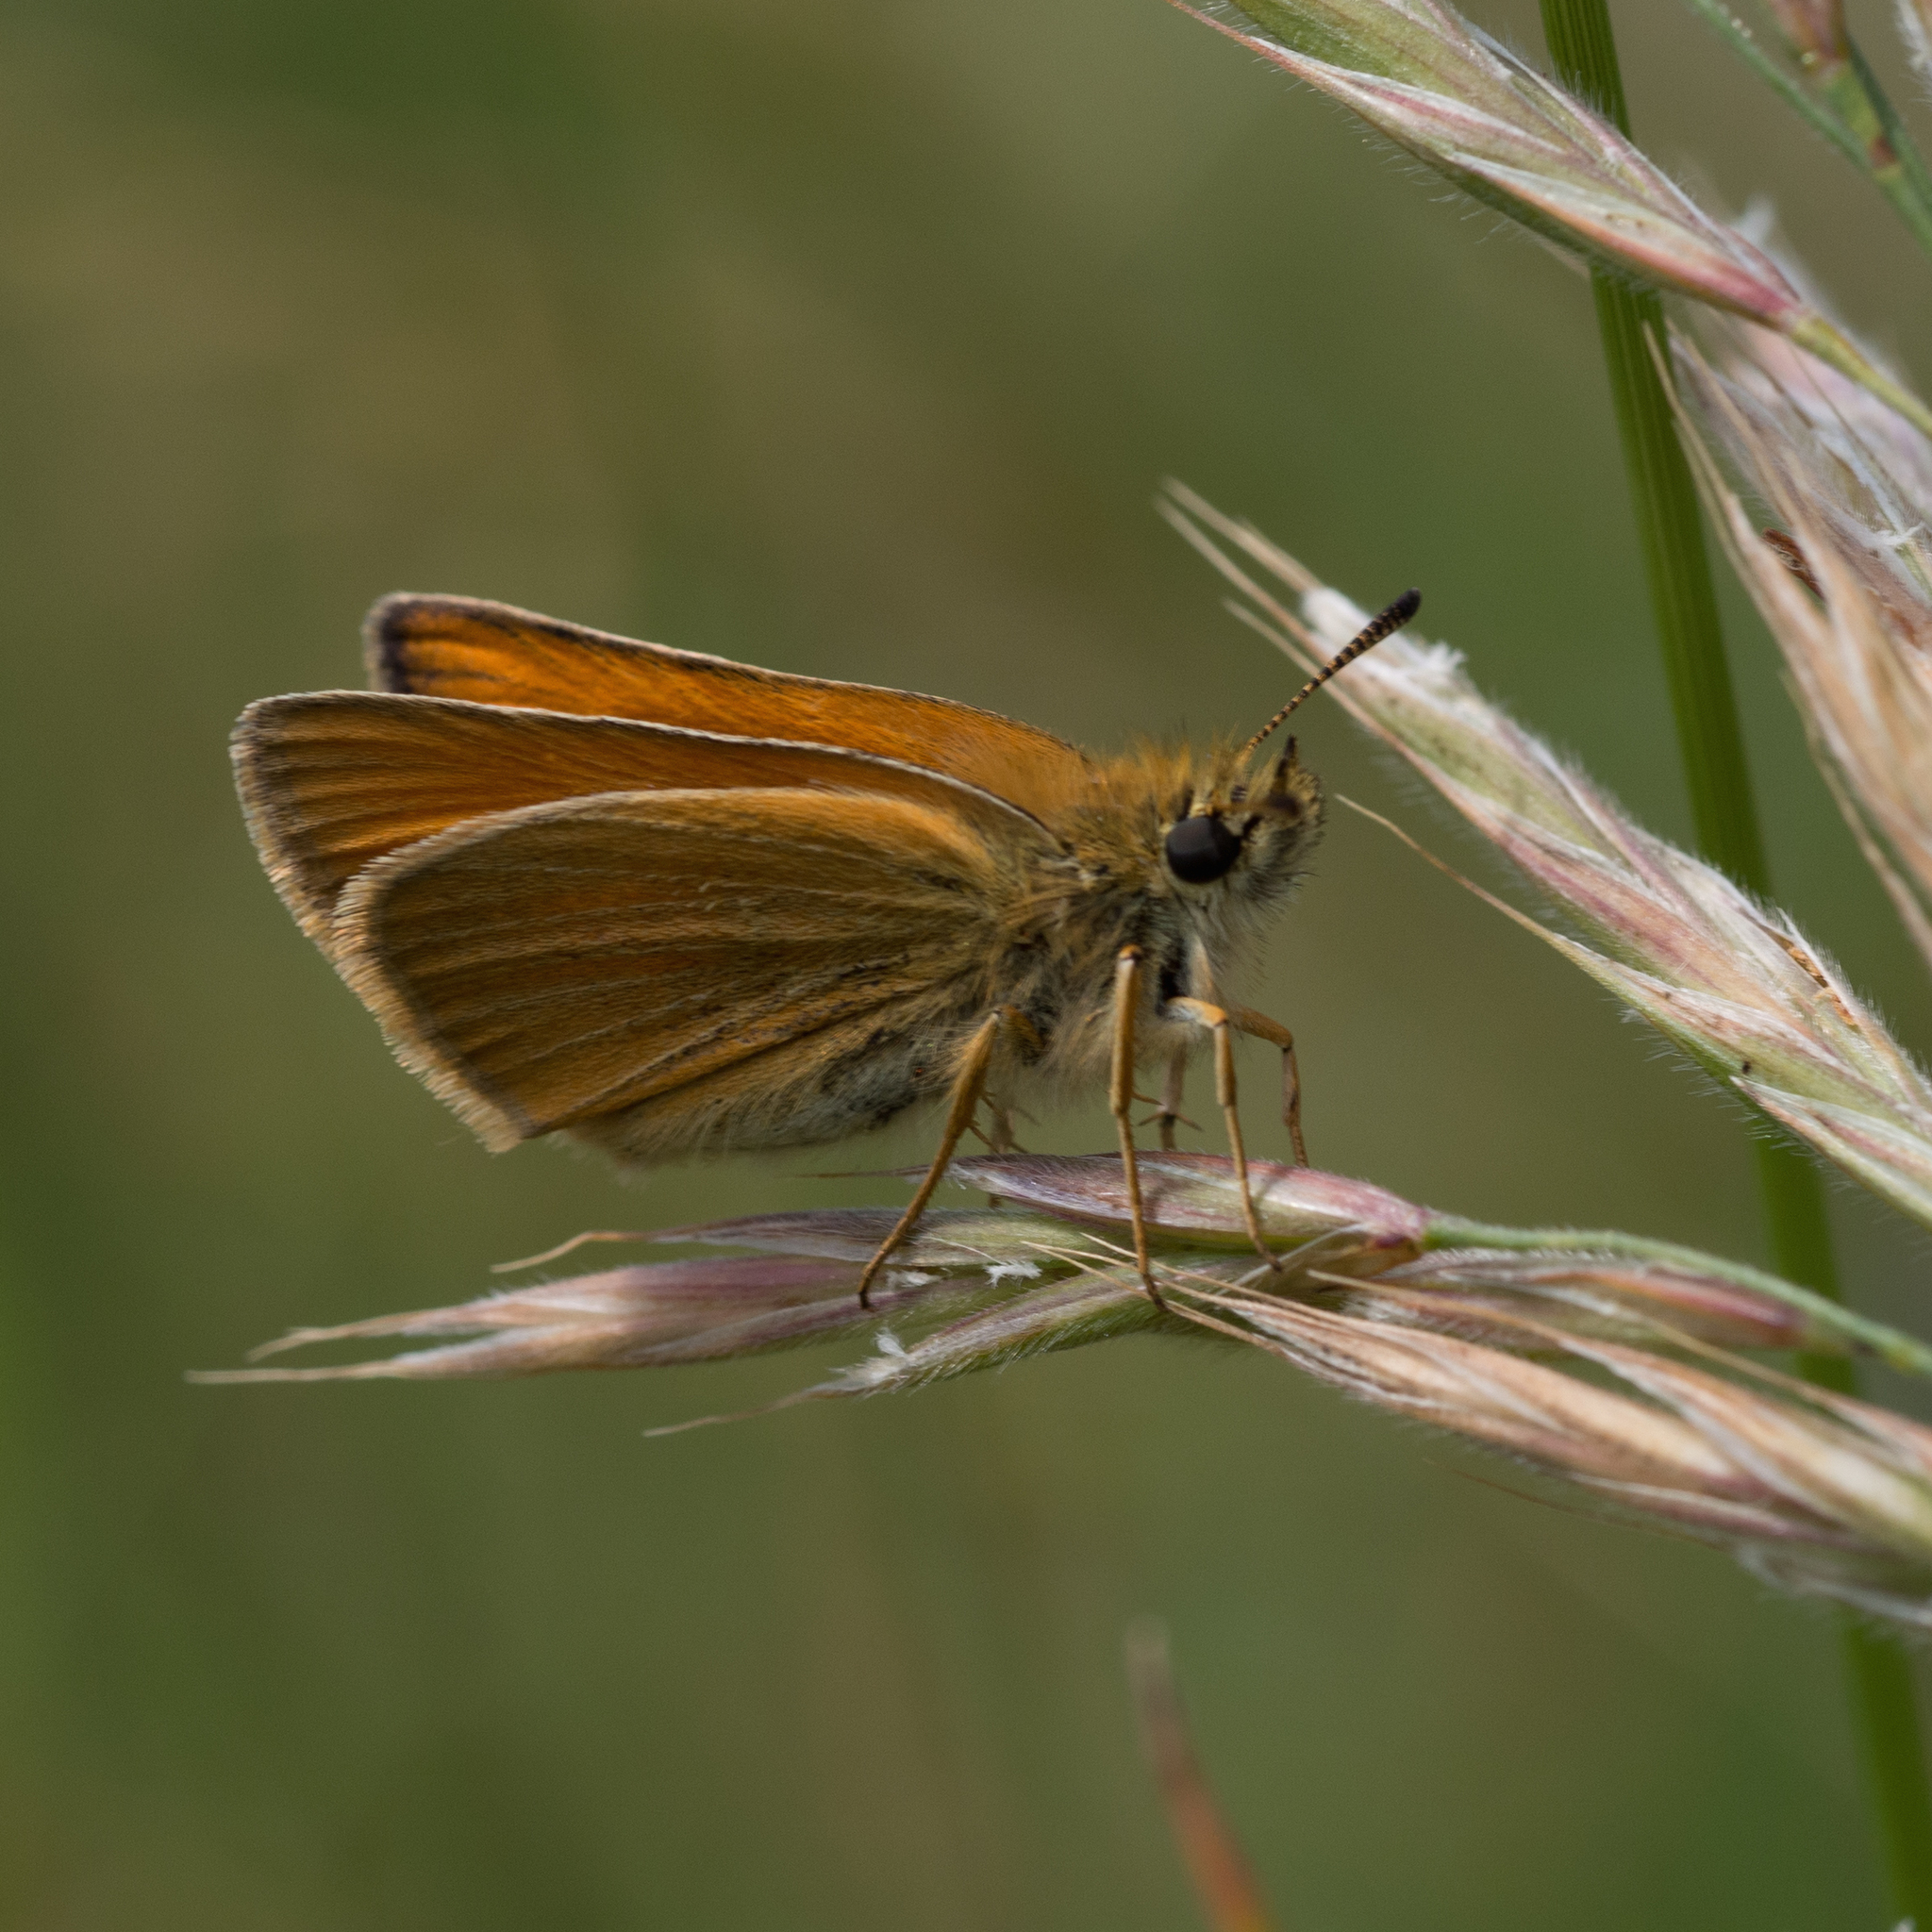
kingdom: Animalia
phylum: Arthropoda
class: Insecta
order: Lepidoptera
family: Hesperiidae
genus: Thymelicus
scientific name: Thymelicus lineola
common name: Essex skipper
